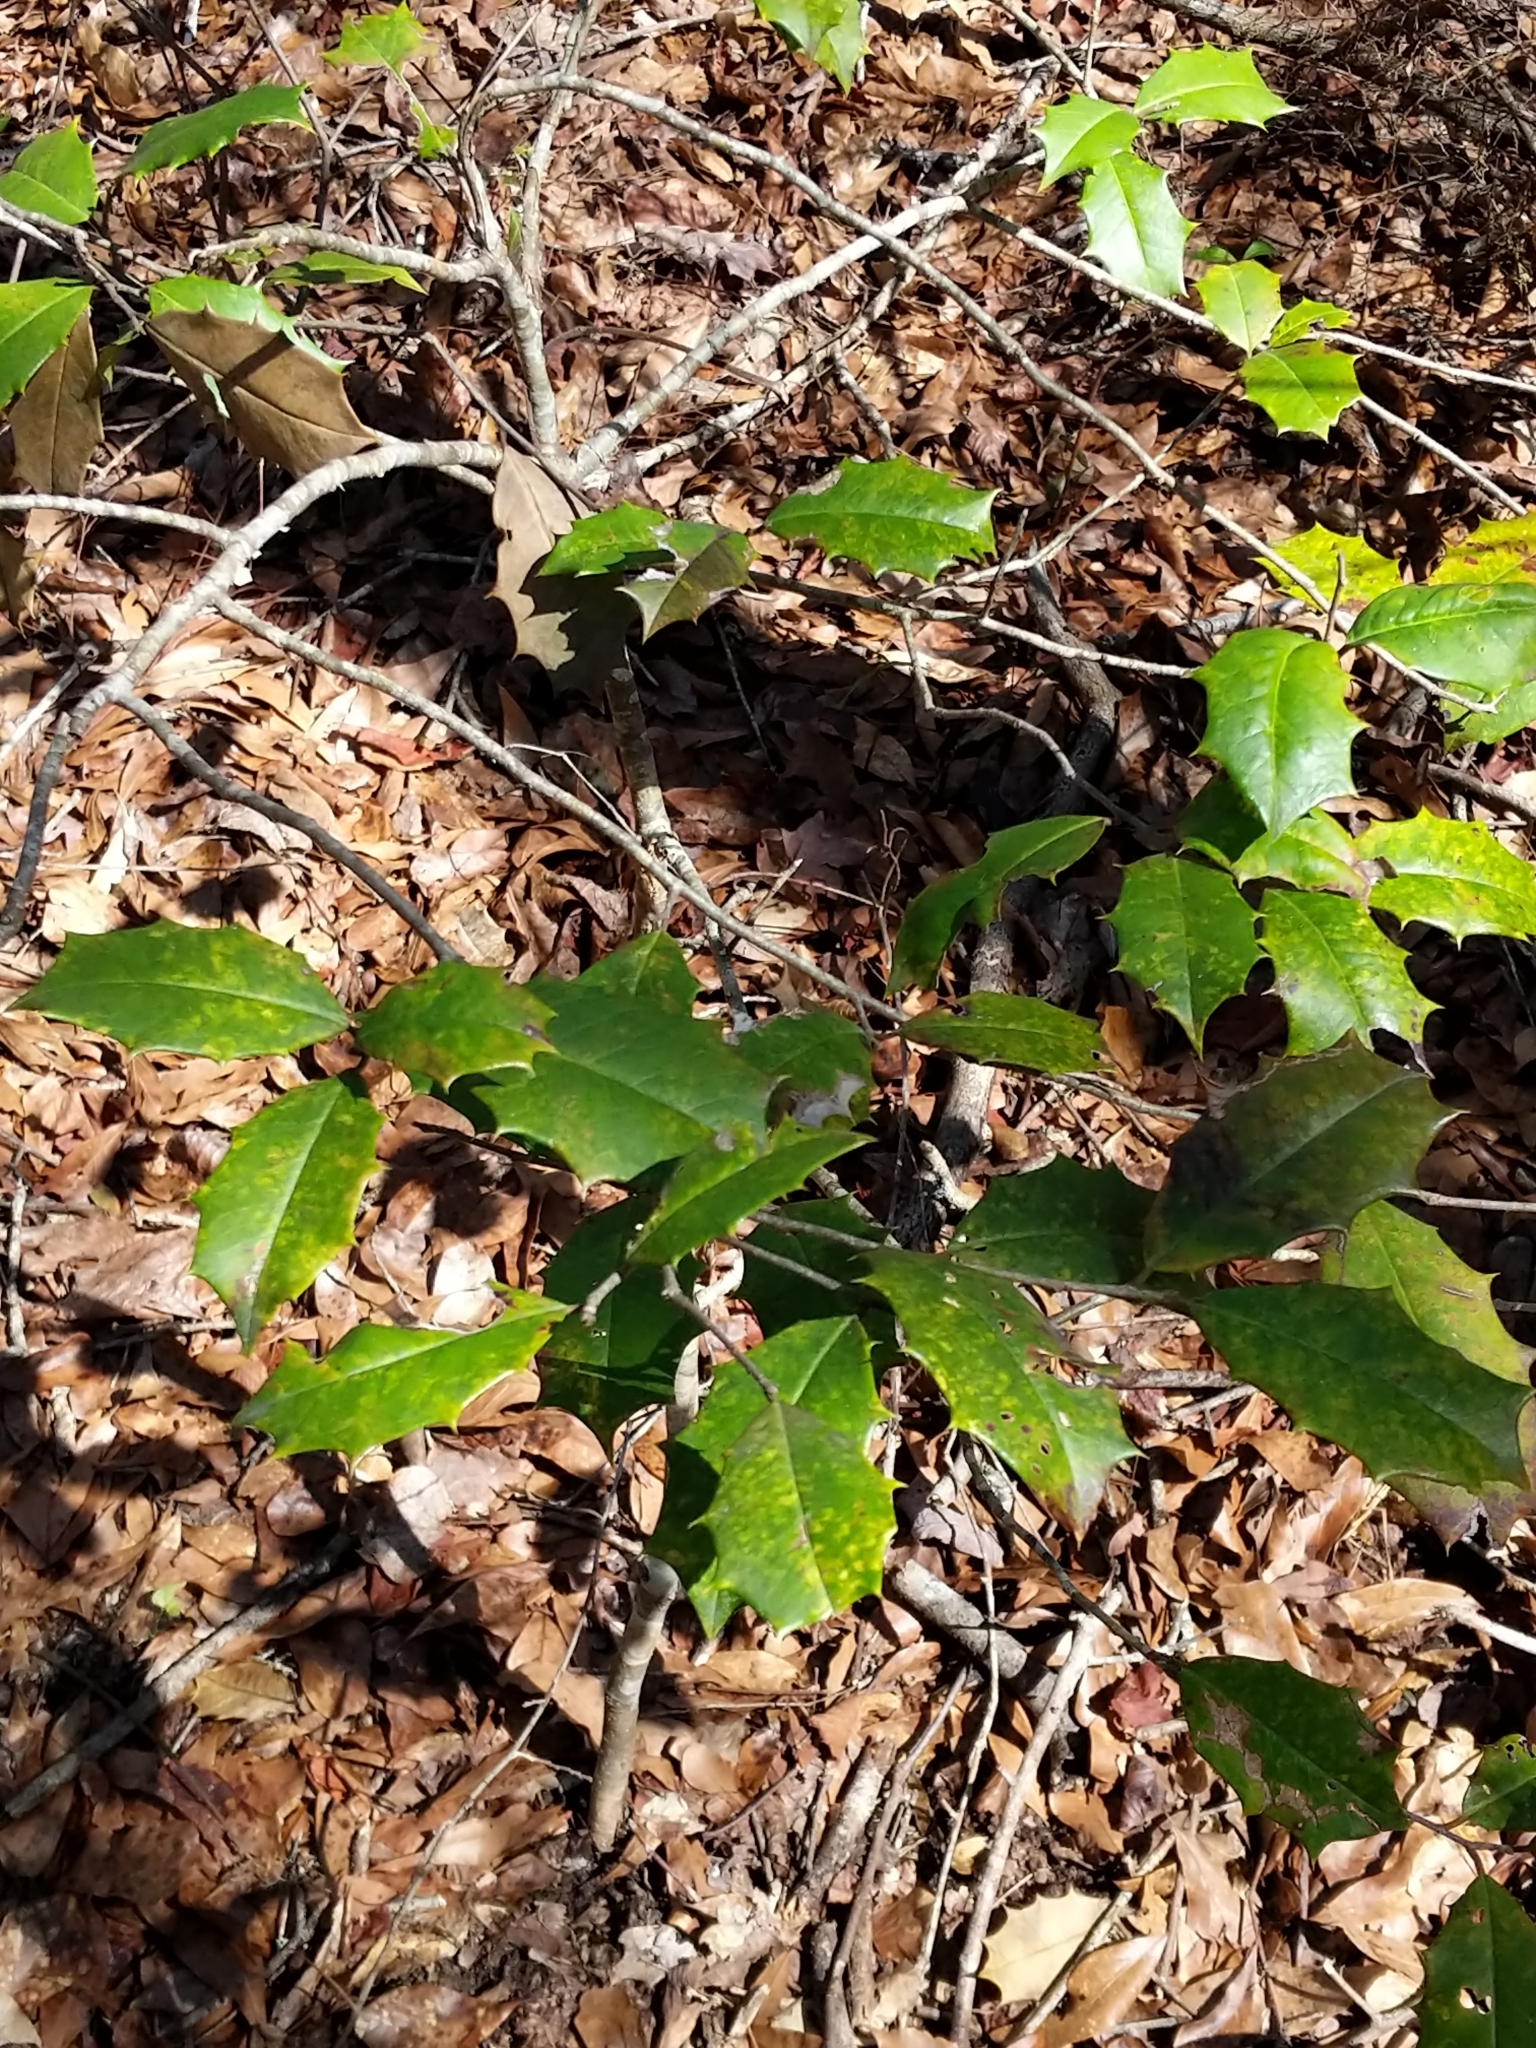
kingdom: Plantae
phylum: Tracheophyta
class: Magnoliopsida
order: Aquifoliales
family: Aquifoliaceae
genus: Ilex
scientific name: Ilex opaca
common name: American holly
